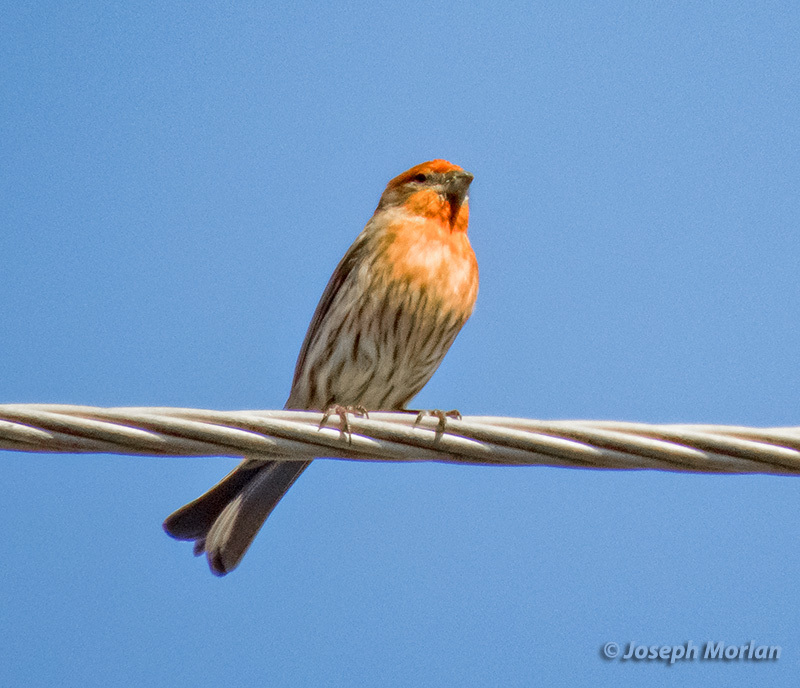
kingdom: Animalia
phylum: Chordata
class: Aves
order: Passeriformes
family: Fringillidae
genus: Haemorhous
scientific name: Haemorhous mexicanus
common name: House finch
